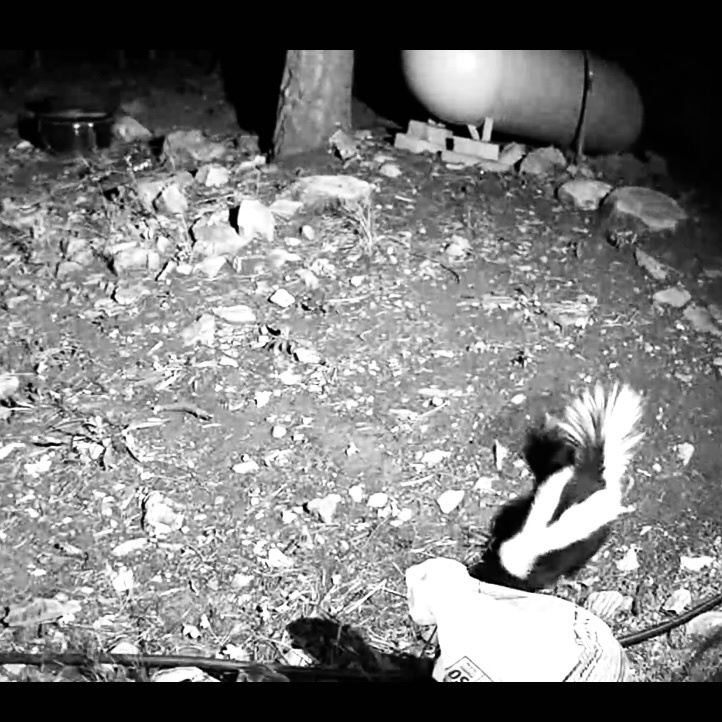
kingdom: Animalia
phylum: Chordata
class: Mammalia
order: Carnivora
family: Mephitidae
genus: Mephitis
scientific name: Mephitis mephitis
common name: Striped skunk
